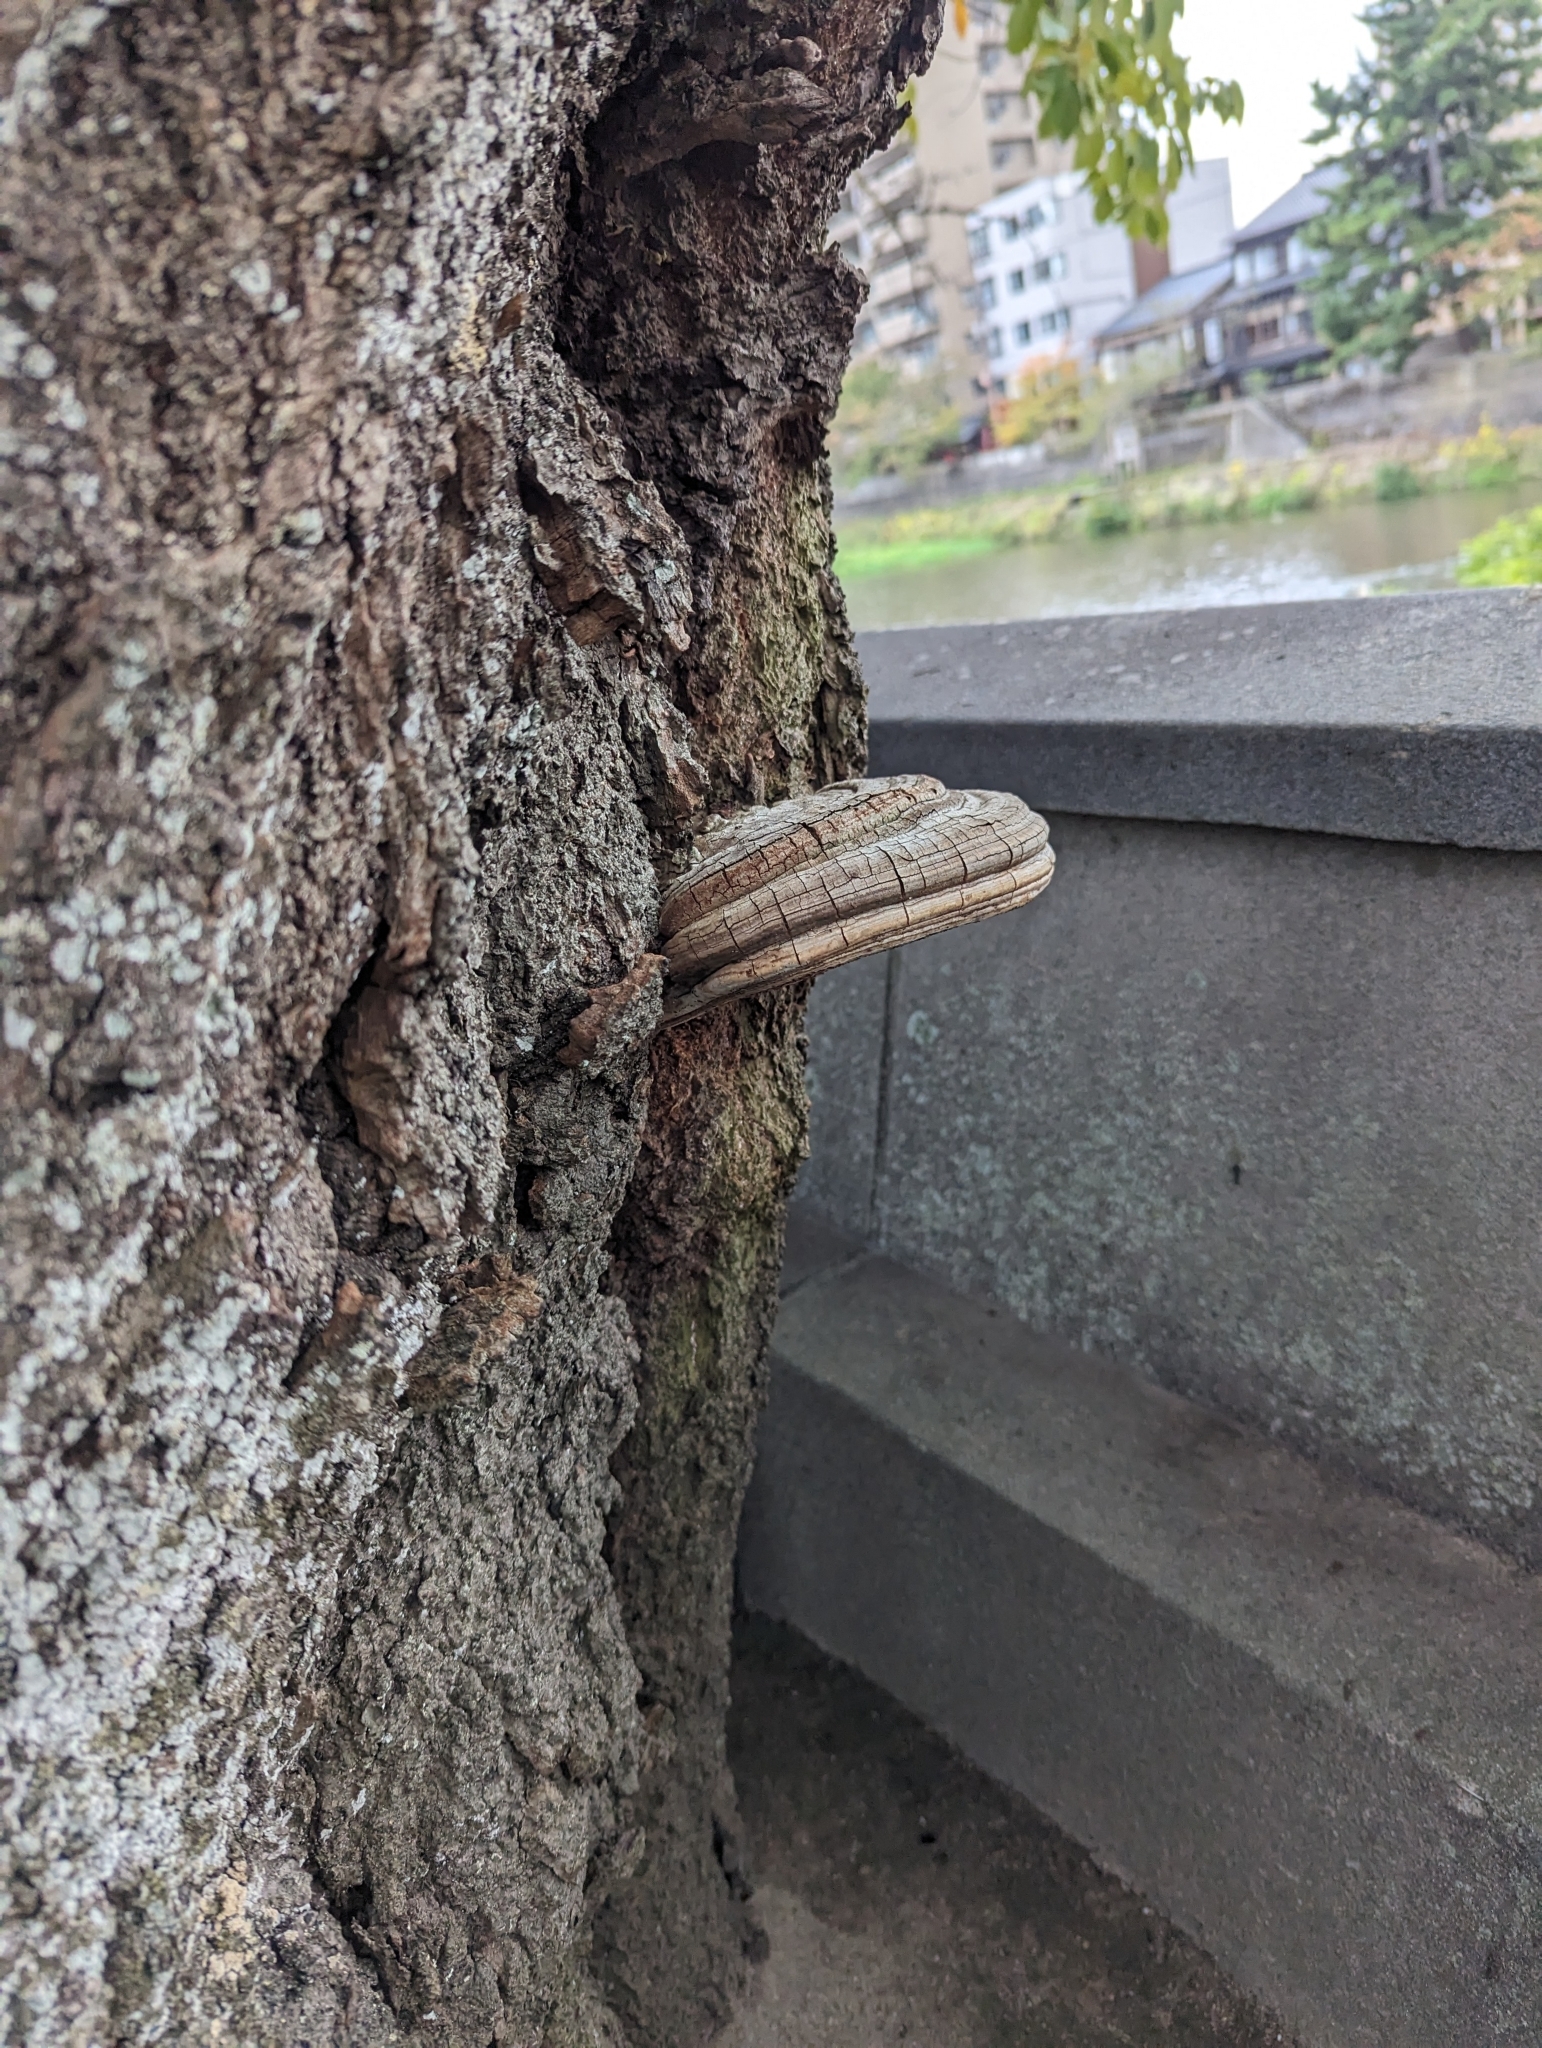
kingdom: Fungi
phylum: Basidiomycota
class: Agaricomycetes
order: Polyporales
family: Polyporaceae
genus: Ganoderma
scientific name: Ganoderma applanatum
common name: Artist's bracket
